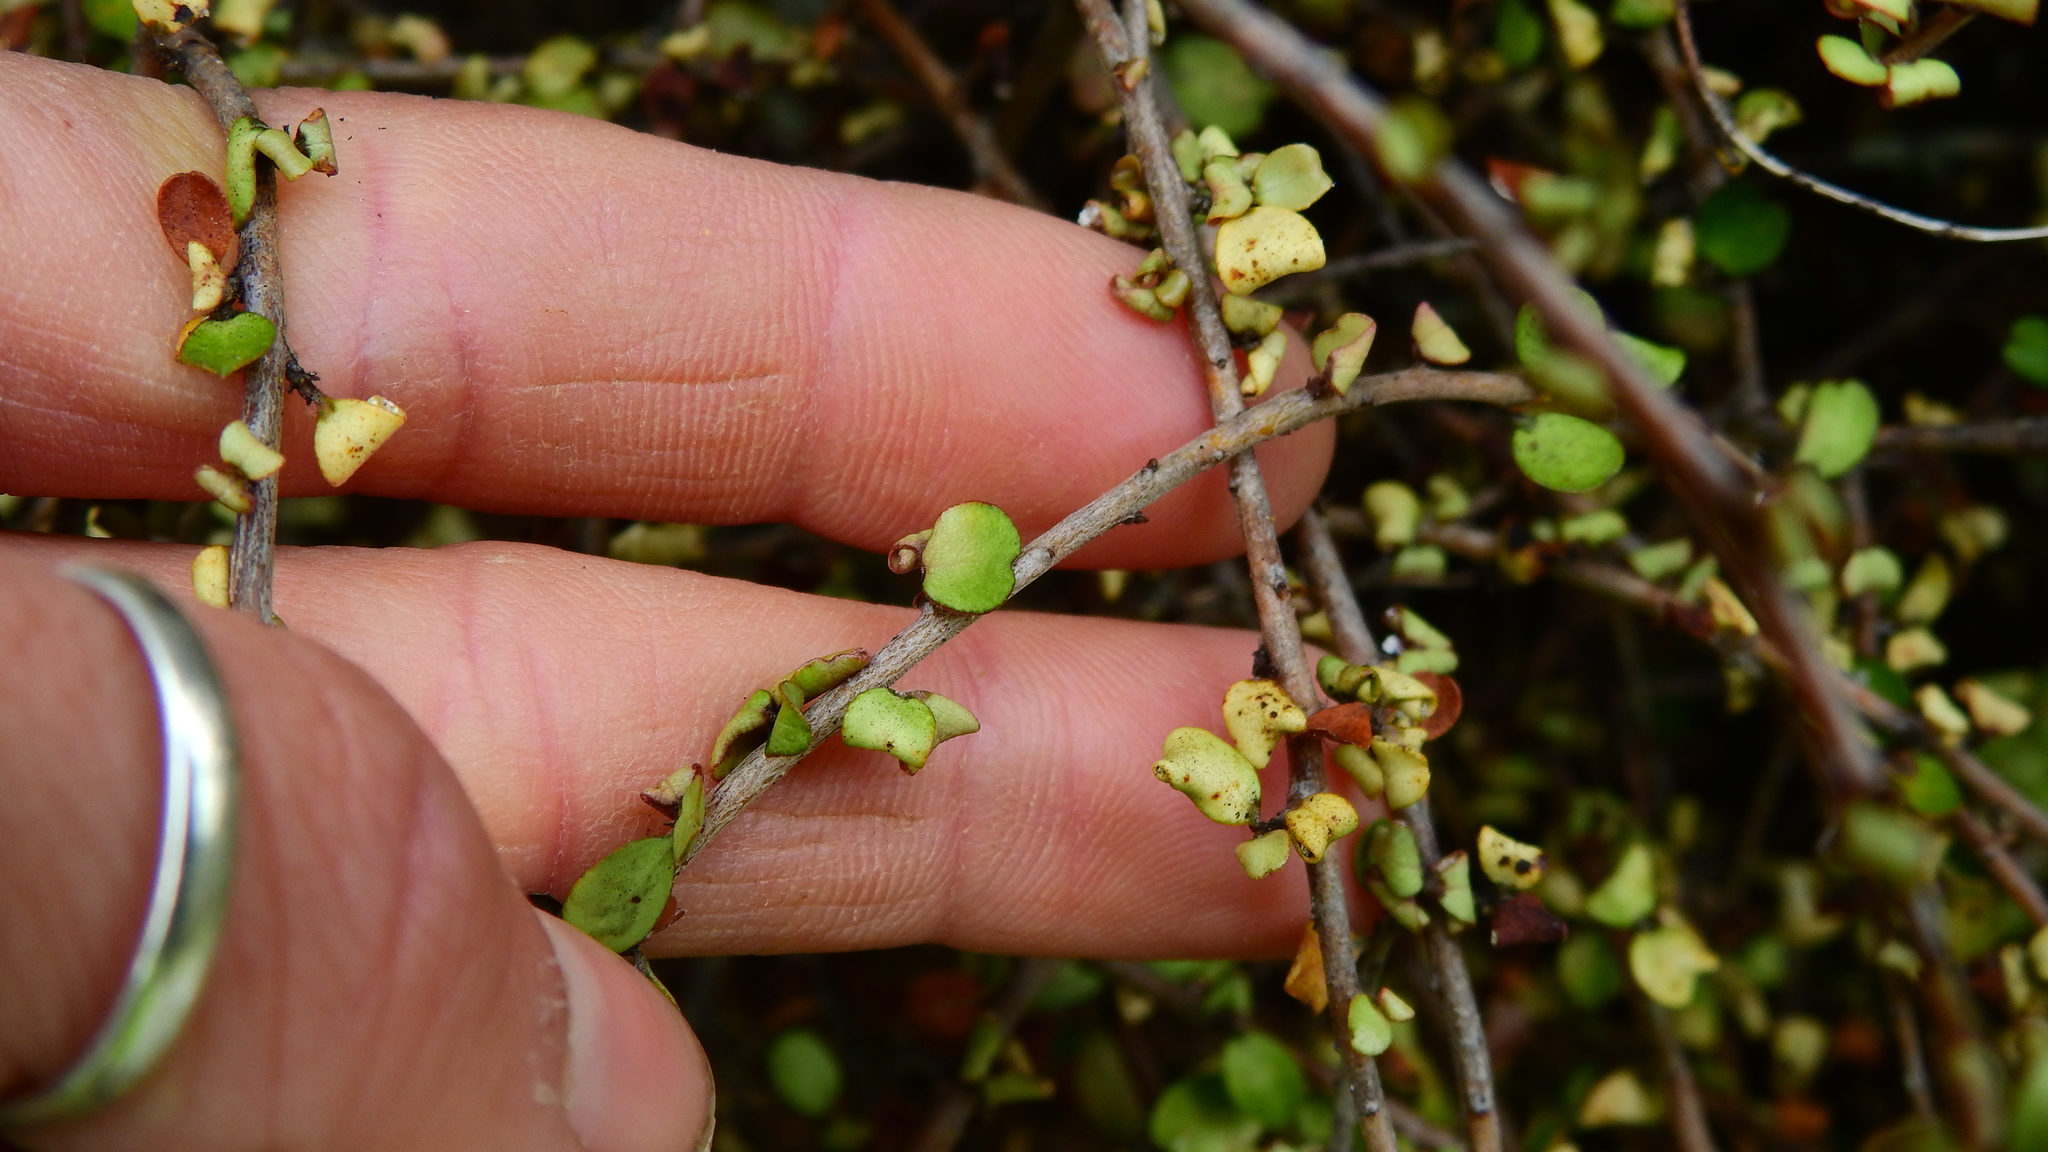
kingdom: Plantae
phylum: Tracheophyta
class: Polypodiopsida
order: Polypodiales
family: Dryopteridaceae
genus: Polystichum
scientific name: Polystichum vestitum
